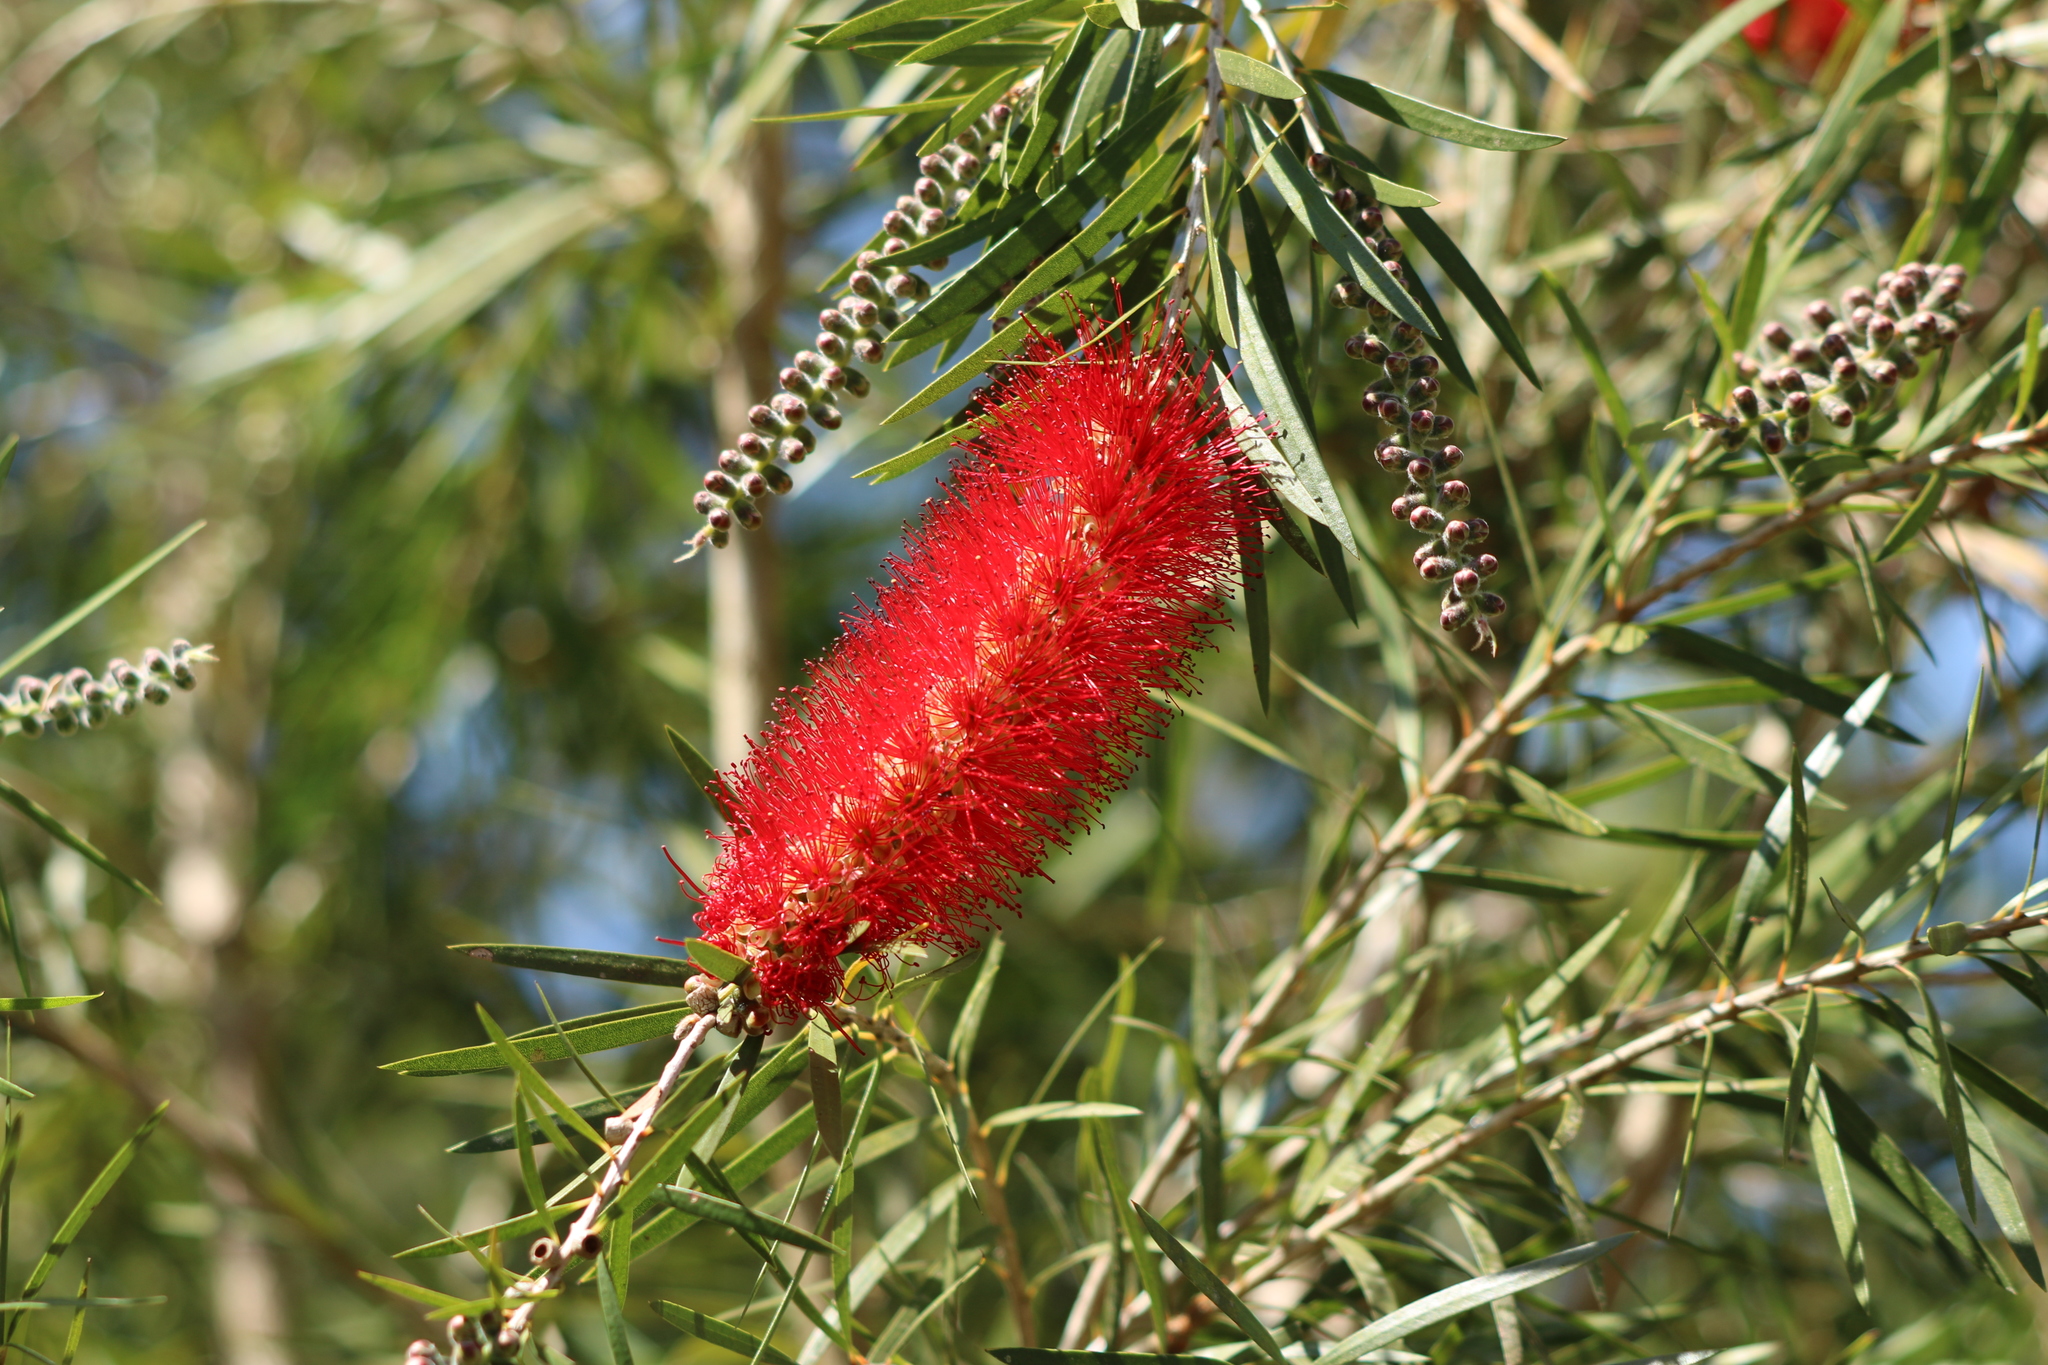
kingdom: Plantae
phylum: Tracheophyta
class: Magnoliopsida
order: Myrtales
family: Myrtaceae
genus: Callistemon
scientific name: Callistemon viminalis
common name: Drooping bottlebrush
